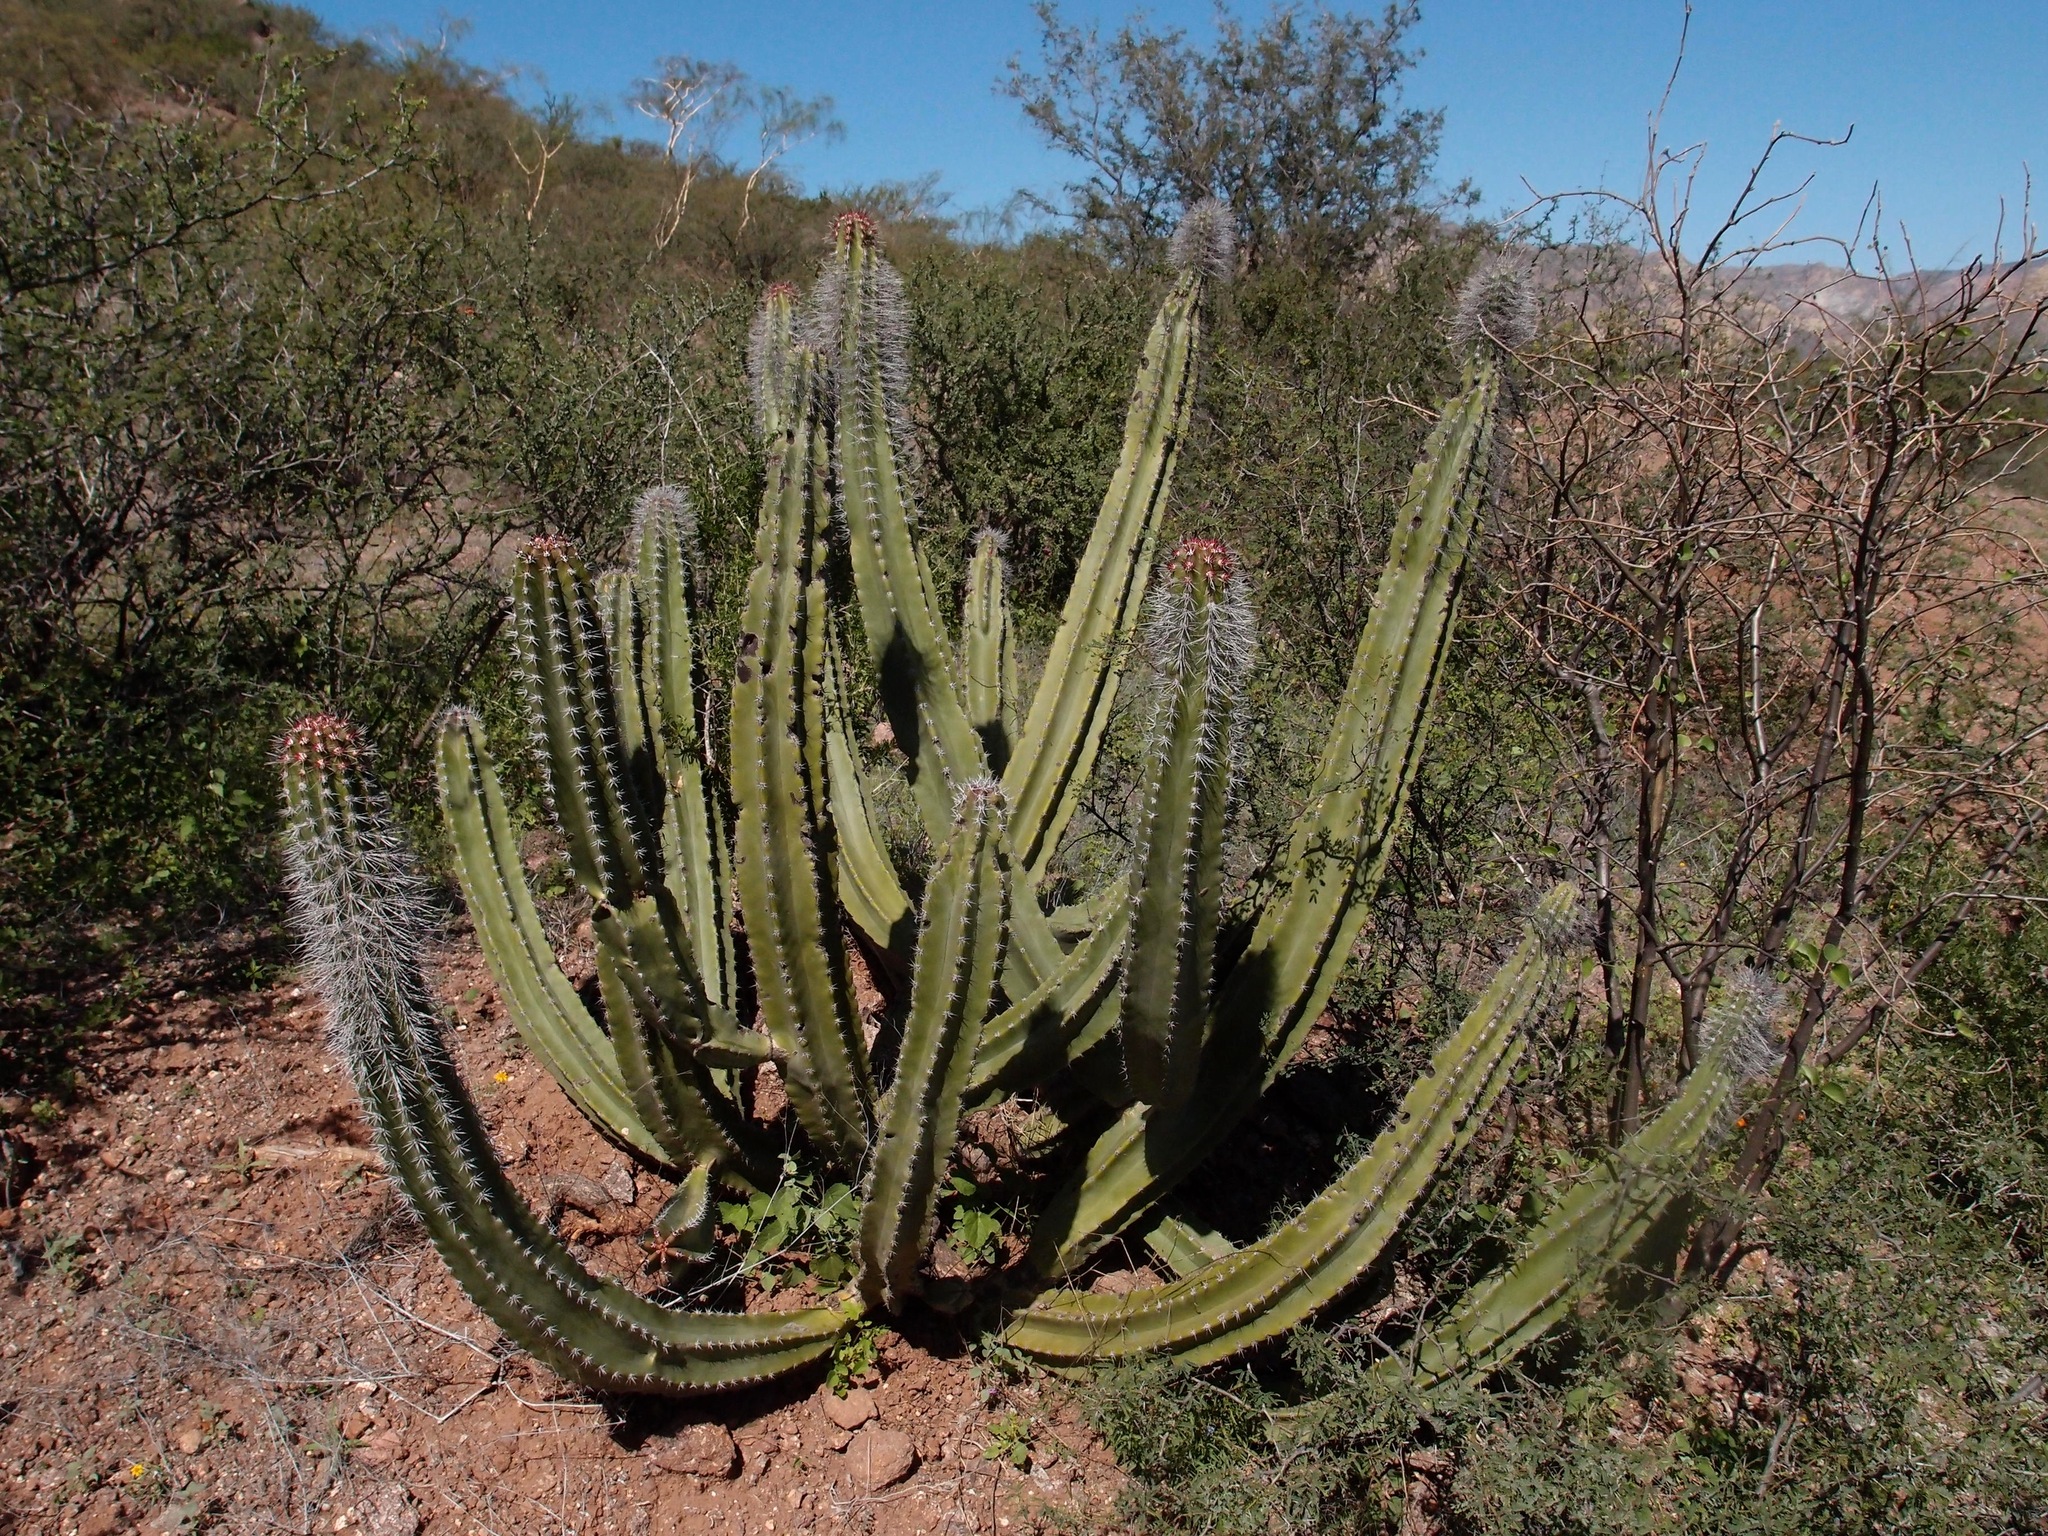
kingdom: Plantae
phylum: Tracheophyta
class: Magnoliopsida
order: Caryophyllales
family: Cactaceae
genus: Pachycereus
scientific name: Pachycereus schottii
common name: Senita cactus
